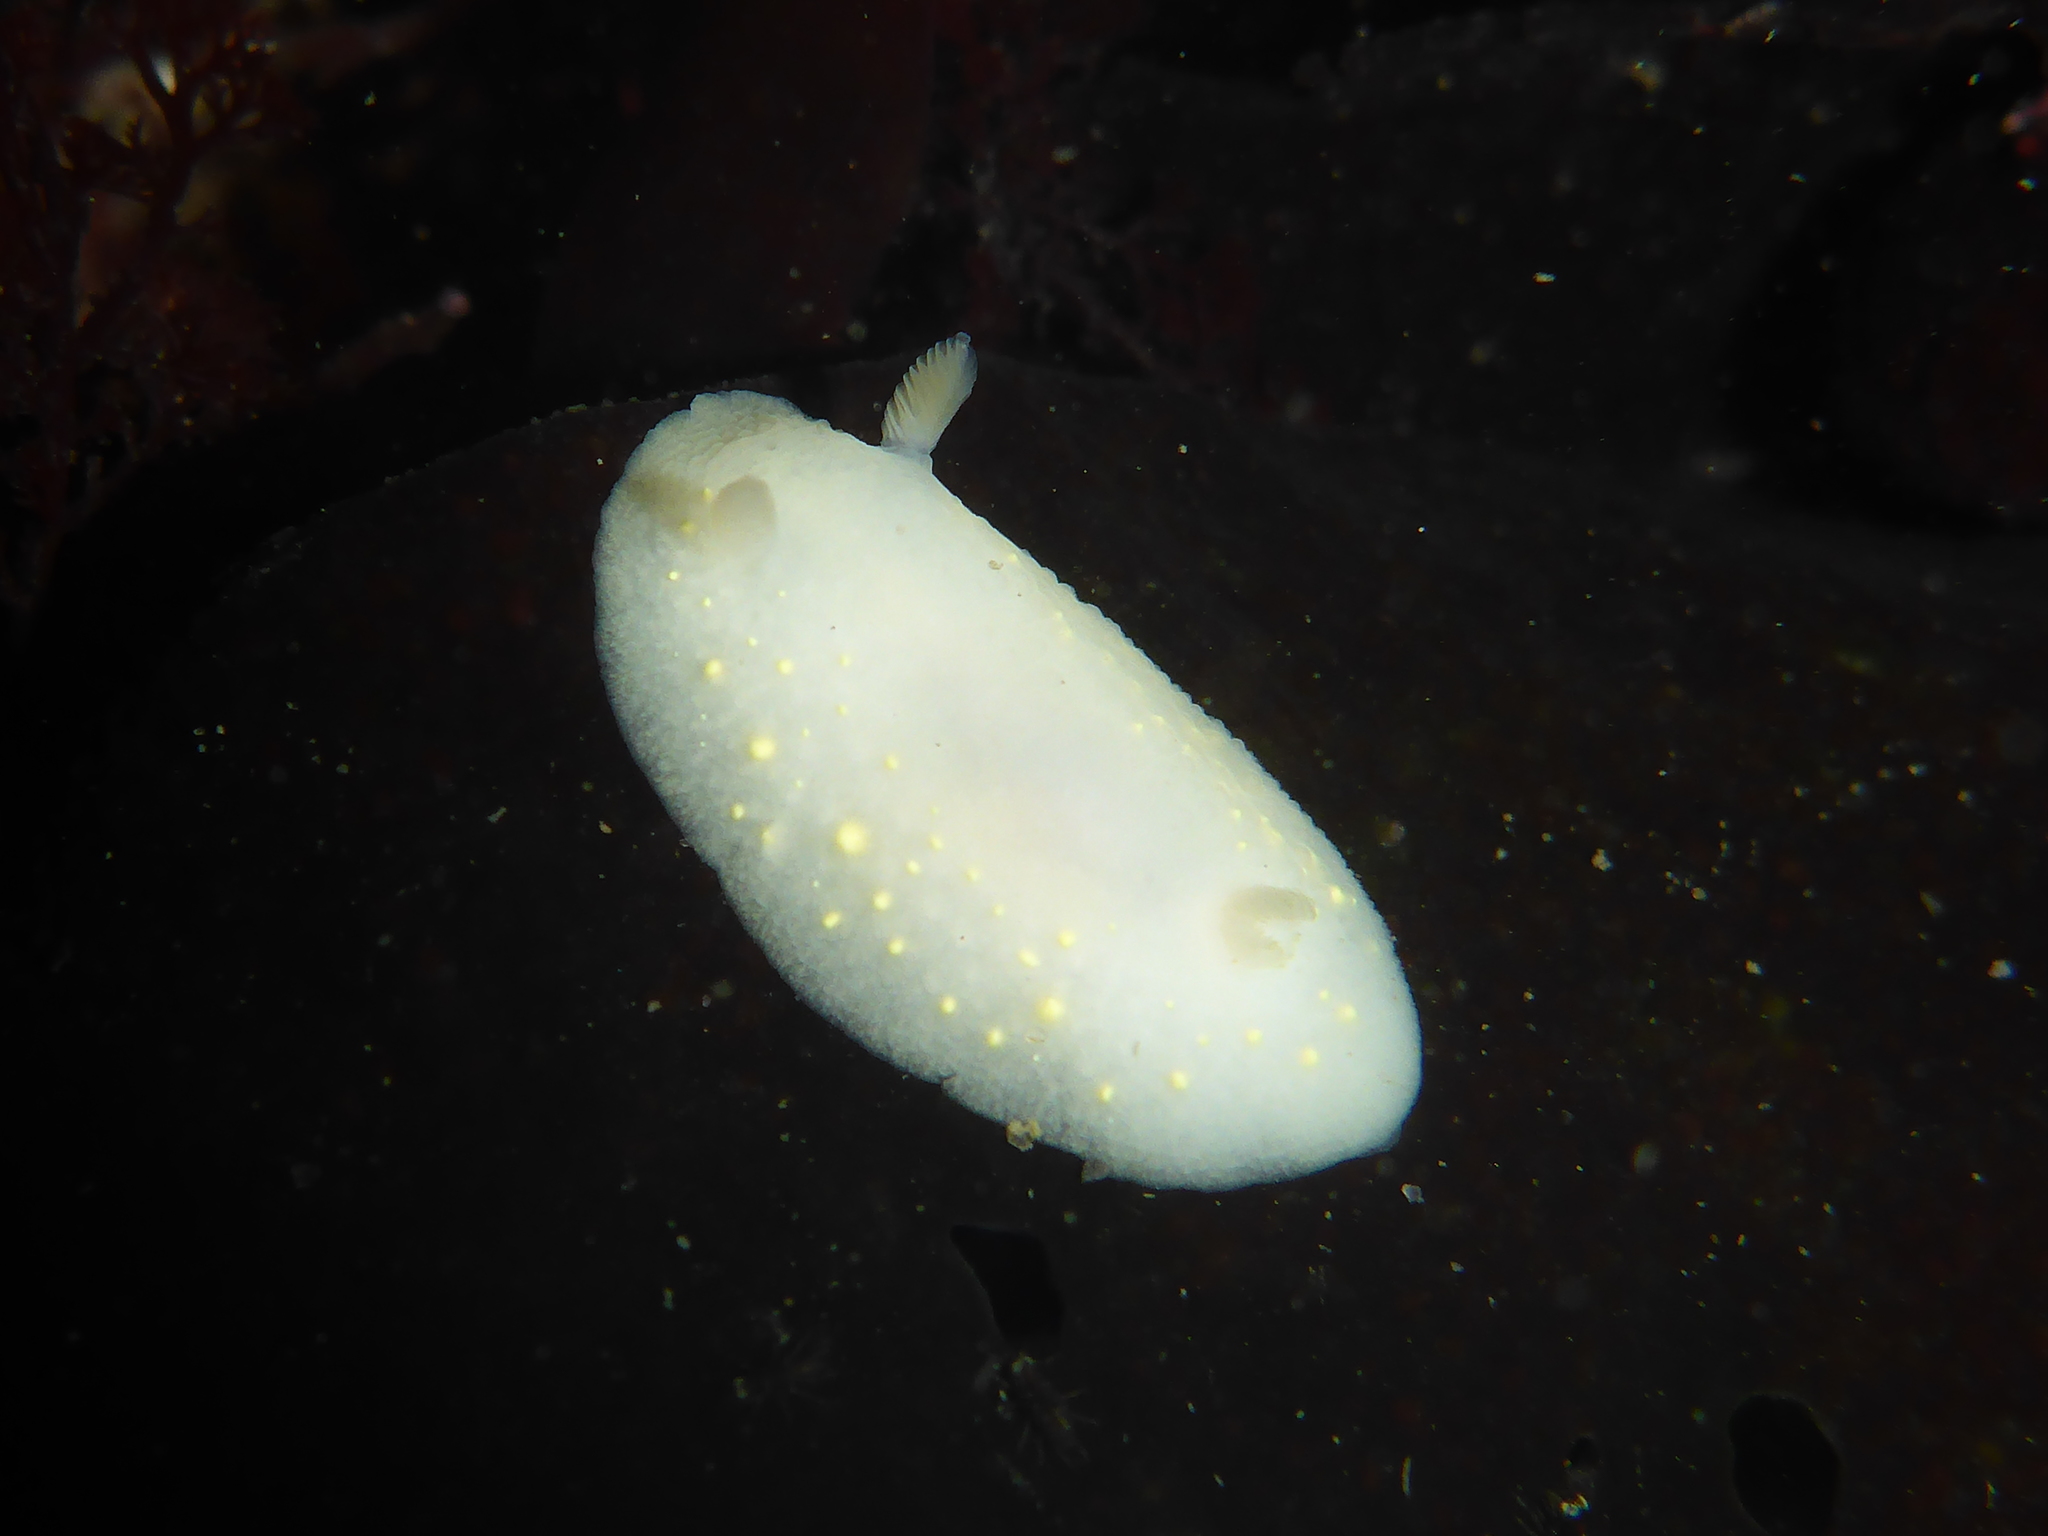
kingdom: Animalia
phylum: Mollusca
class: Gastropoda
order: Nudibranchia
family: Cadlinidae
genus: Cadlina
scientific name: Cadlina modesta
